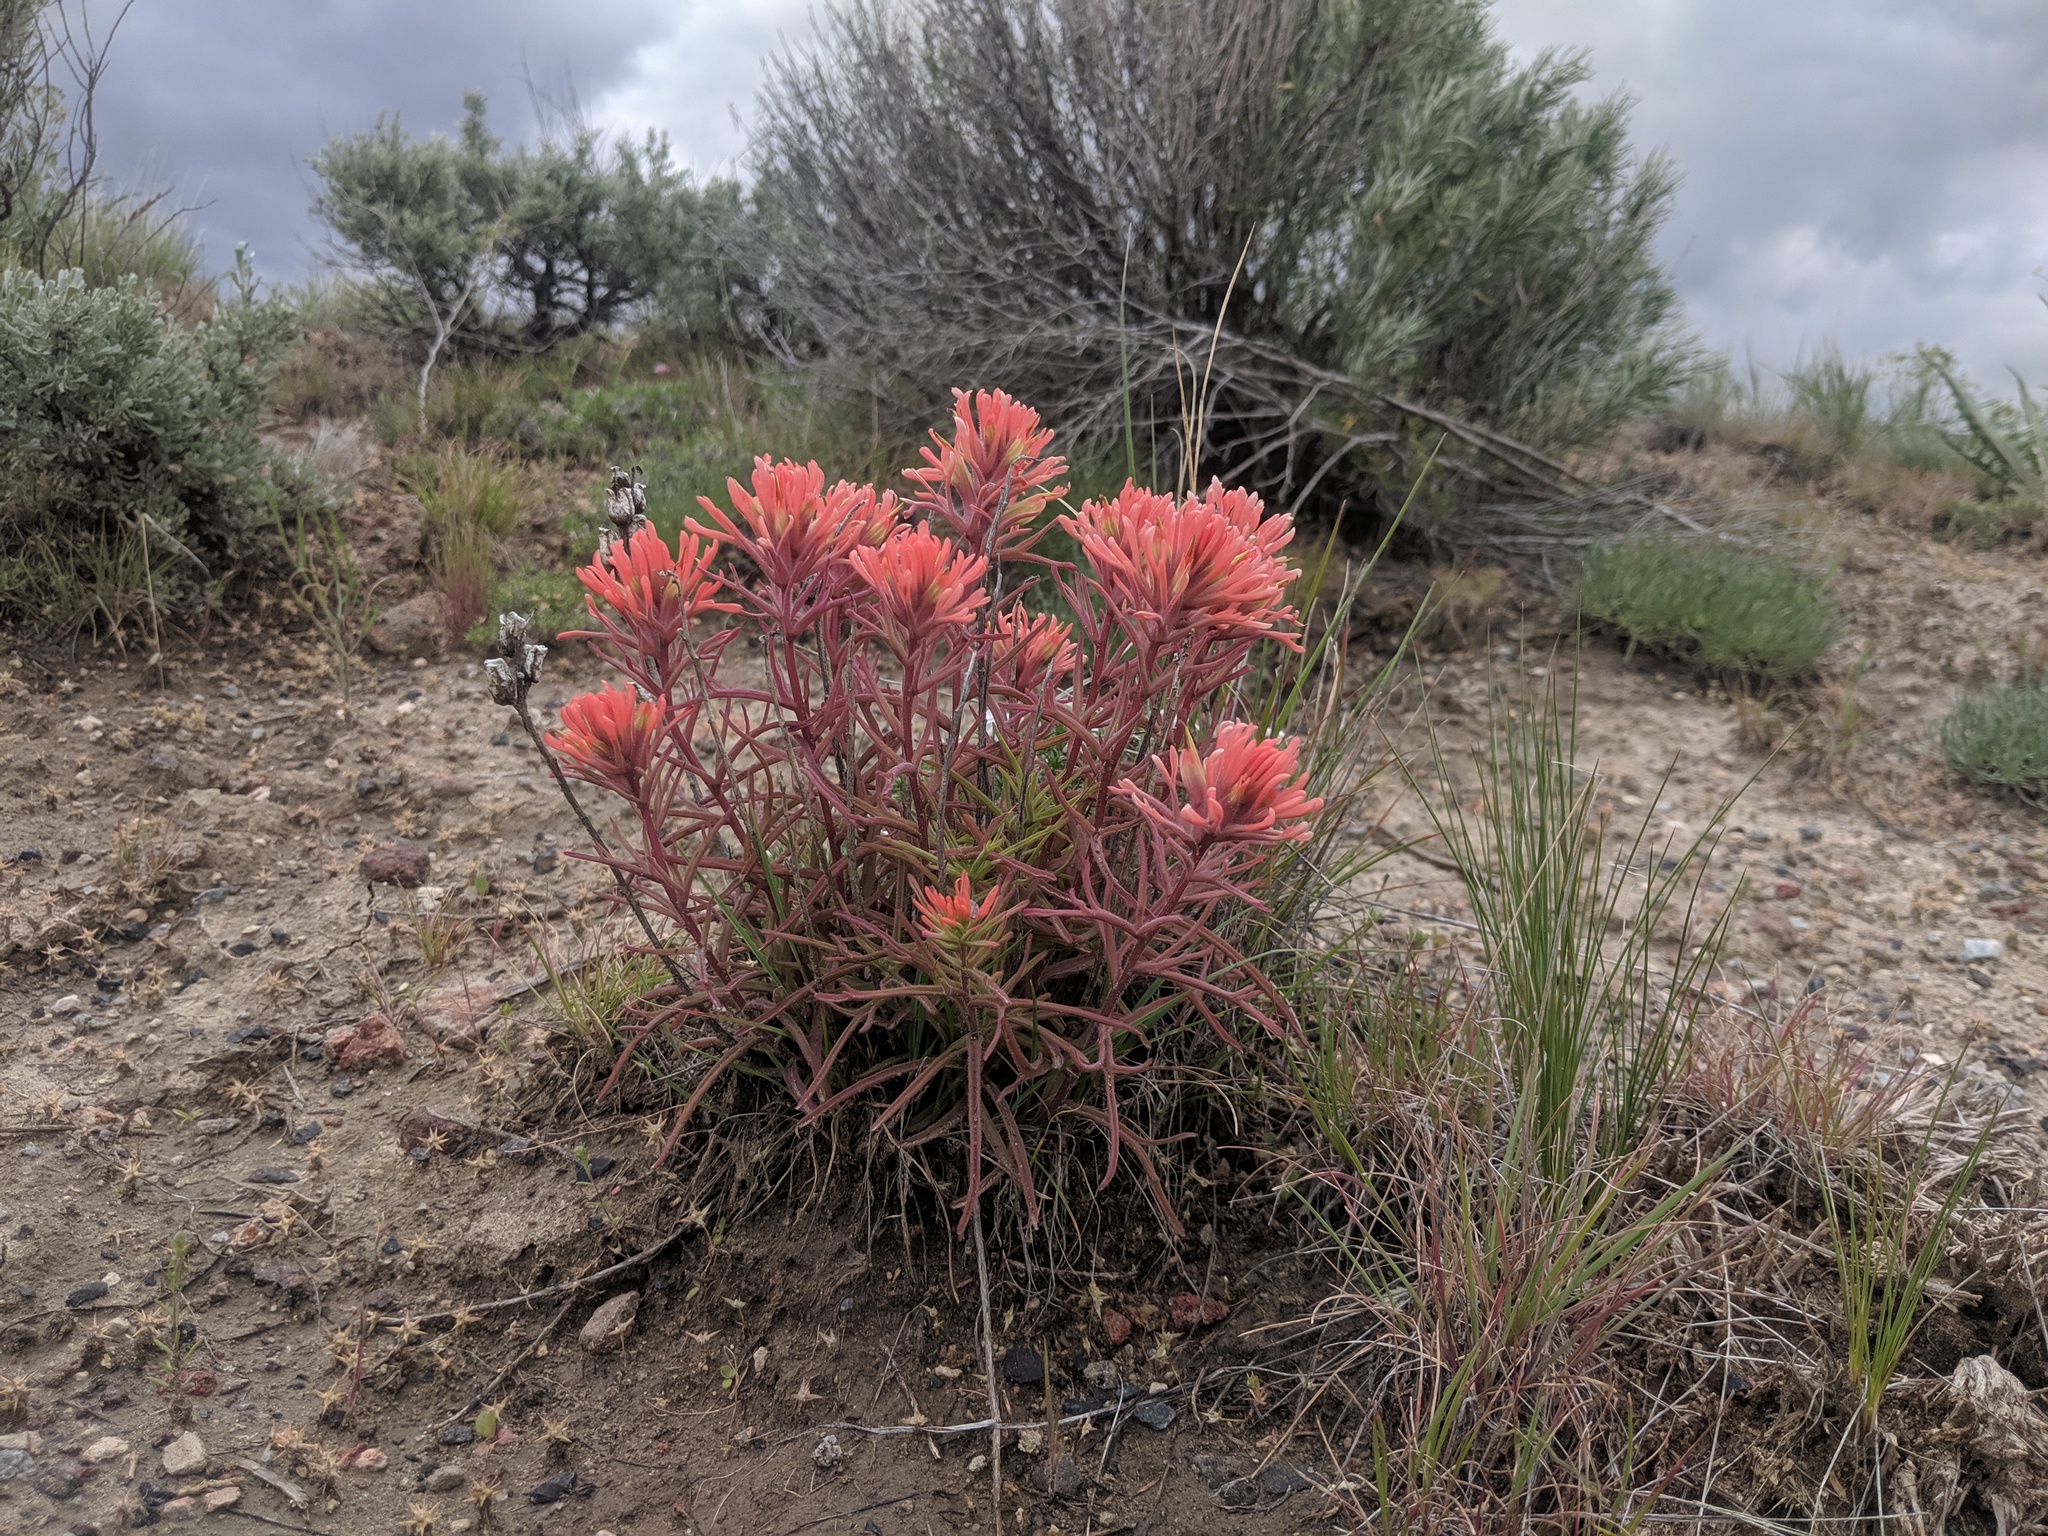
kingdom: Plantae
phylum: Tracheophyta
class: Magnoliopsida
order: Lamiales
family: Orobanchaceae
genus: Castilleja
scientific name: Castilleja chromosa
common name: Desert paintbrush
